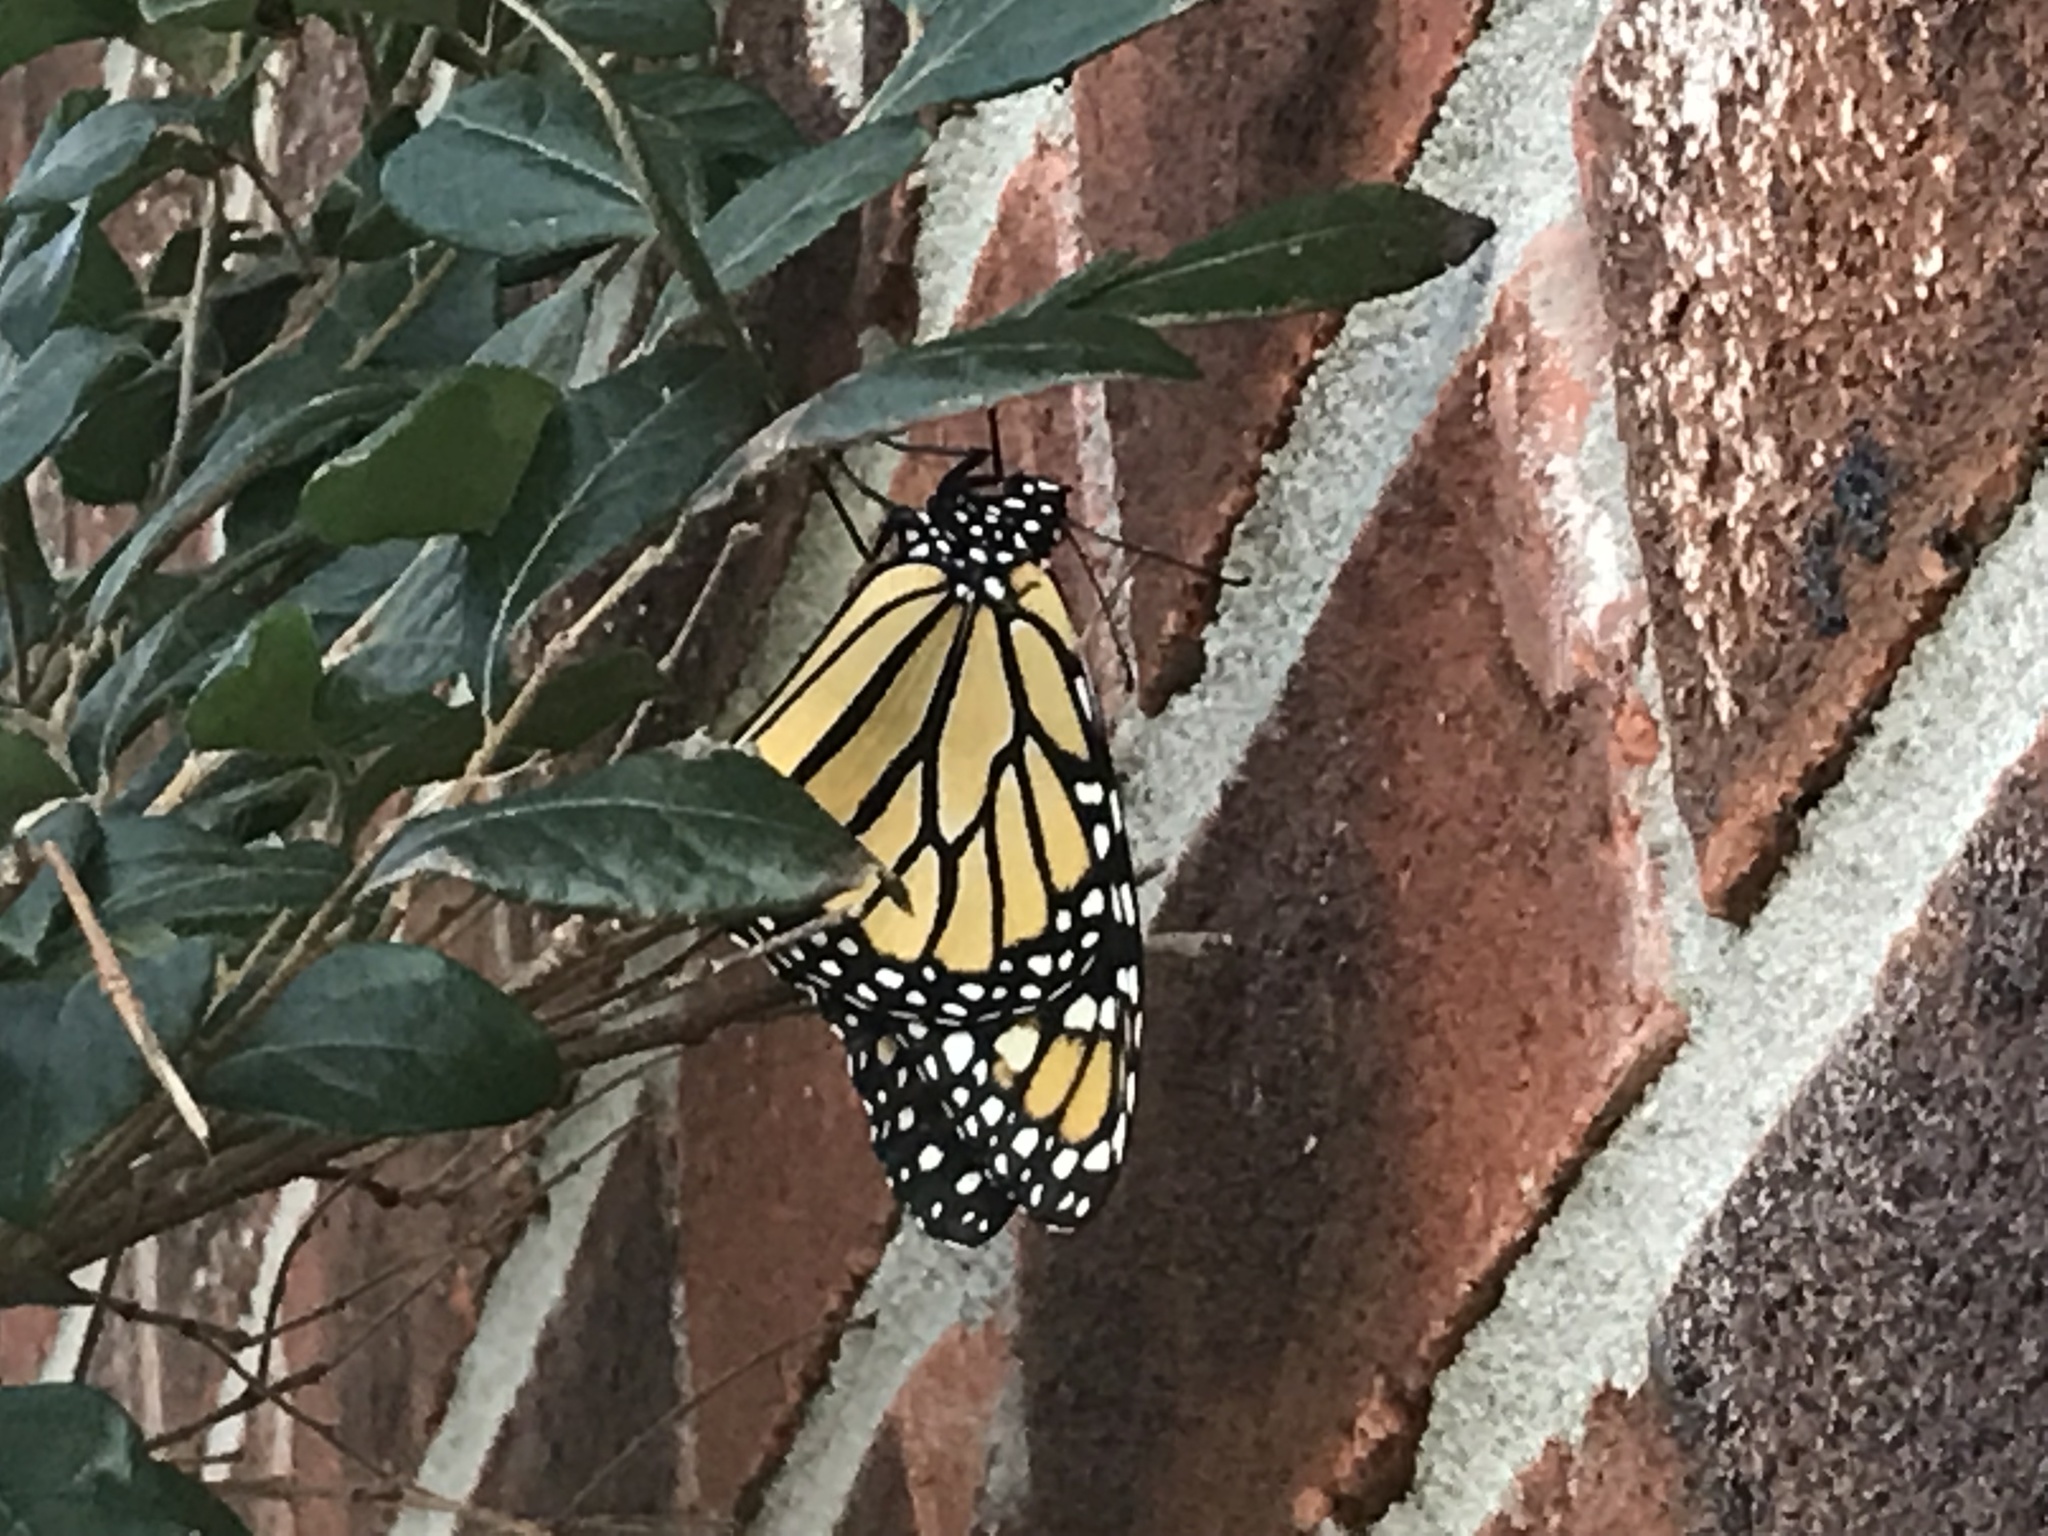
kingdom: Animalia
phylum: Arthropoda
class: Insecta
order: Lepidoptera
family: Nymphalidae
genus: Danaus
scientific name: Danaus plexippus
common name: Monarch
